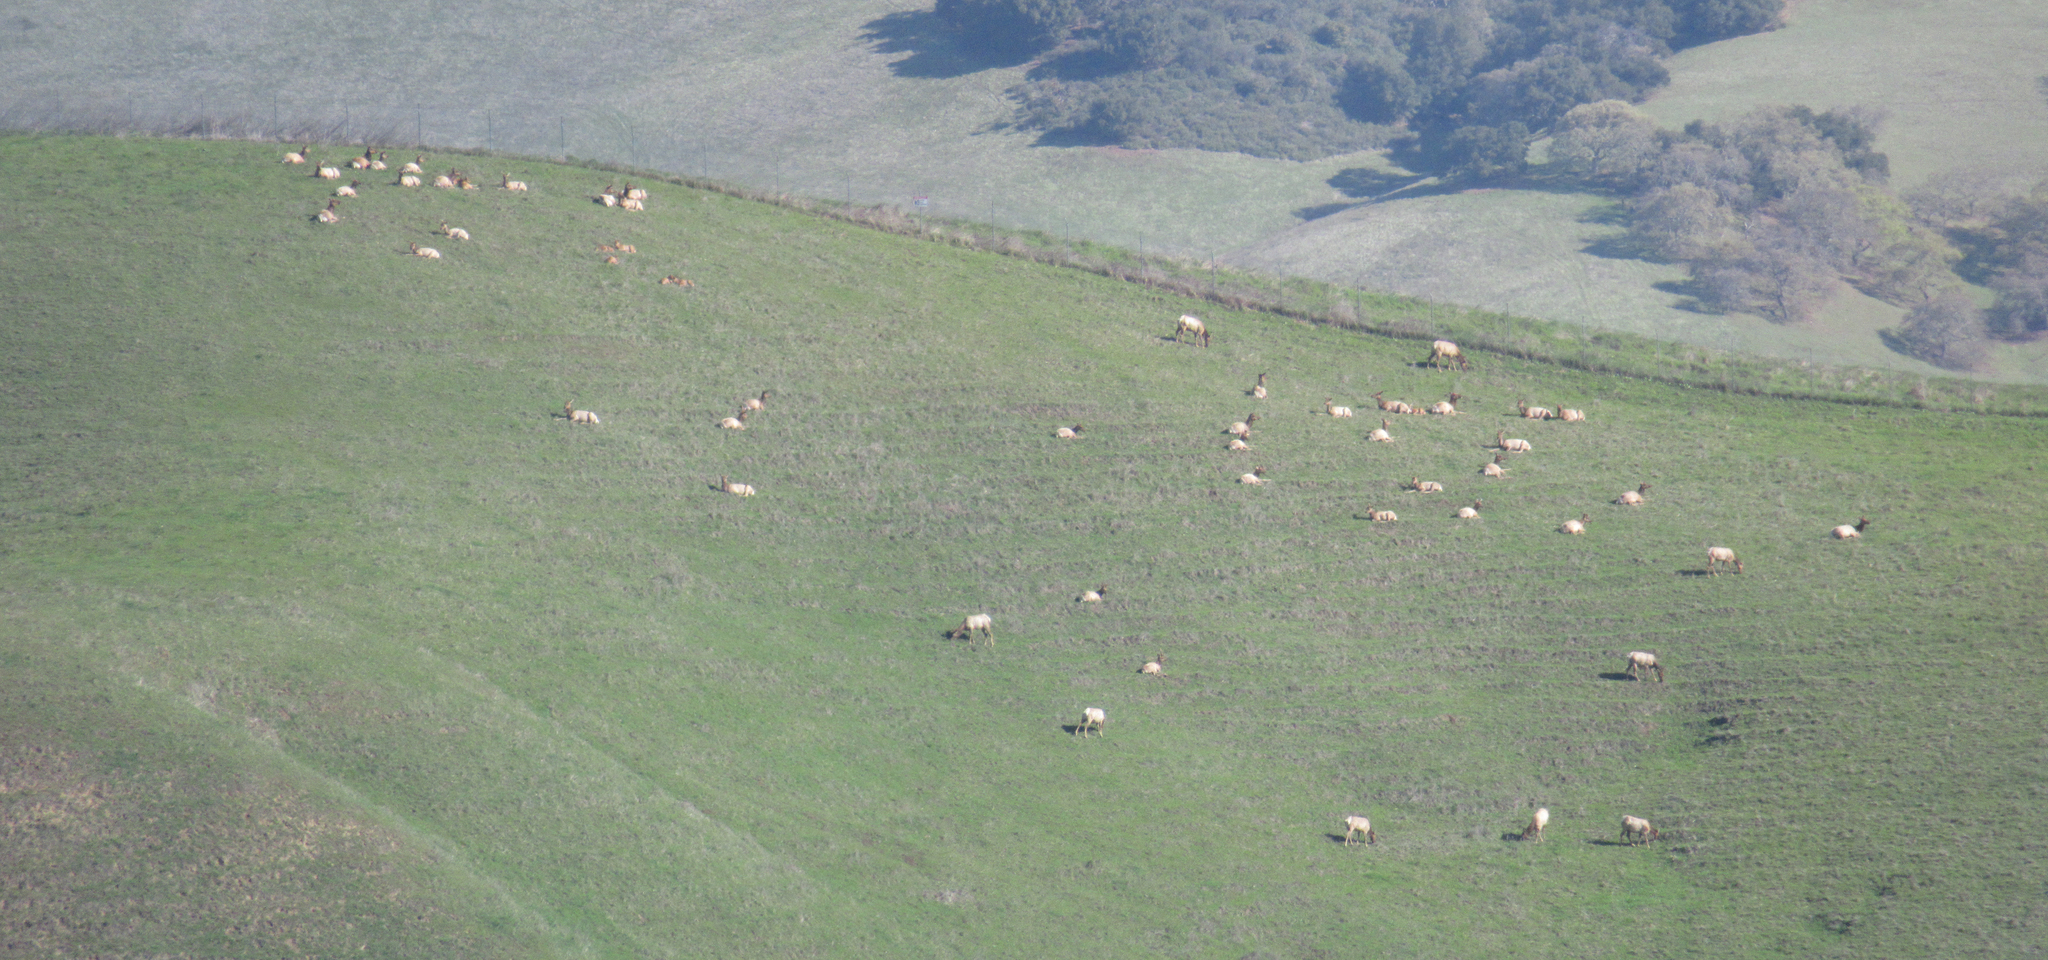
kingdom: Animalia
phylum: Chordata
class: Mammalia
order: Artiodactyla
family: Cervidae
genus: Cervus
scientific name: Cervus elaphus
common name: Red deer
